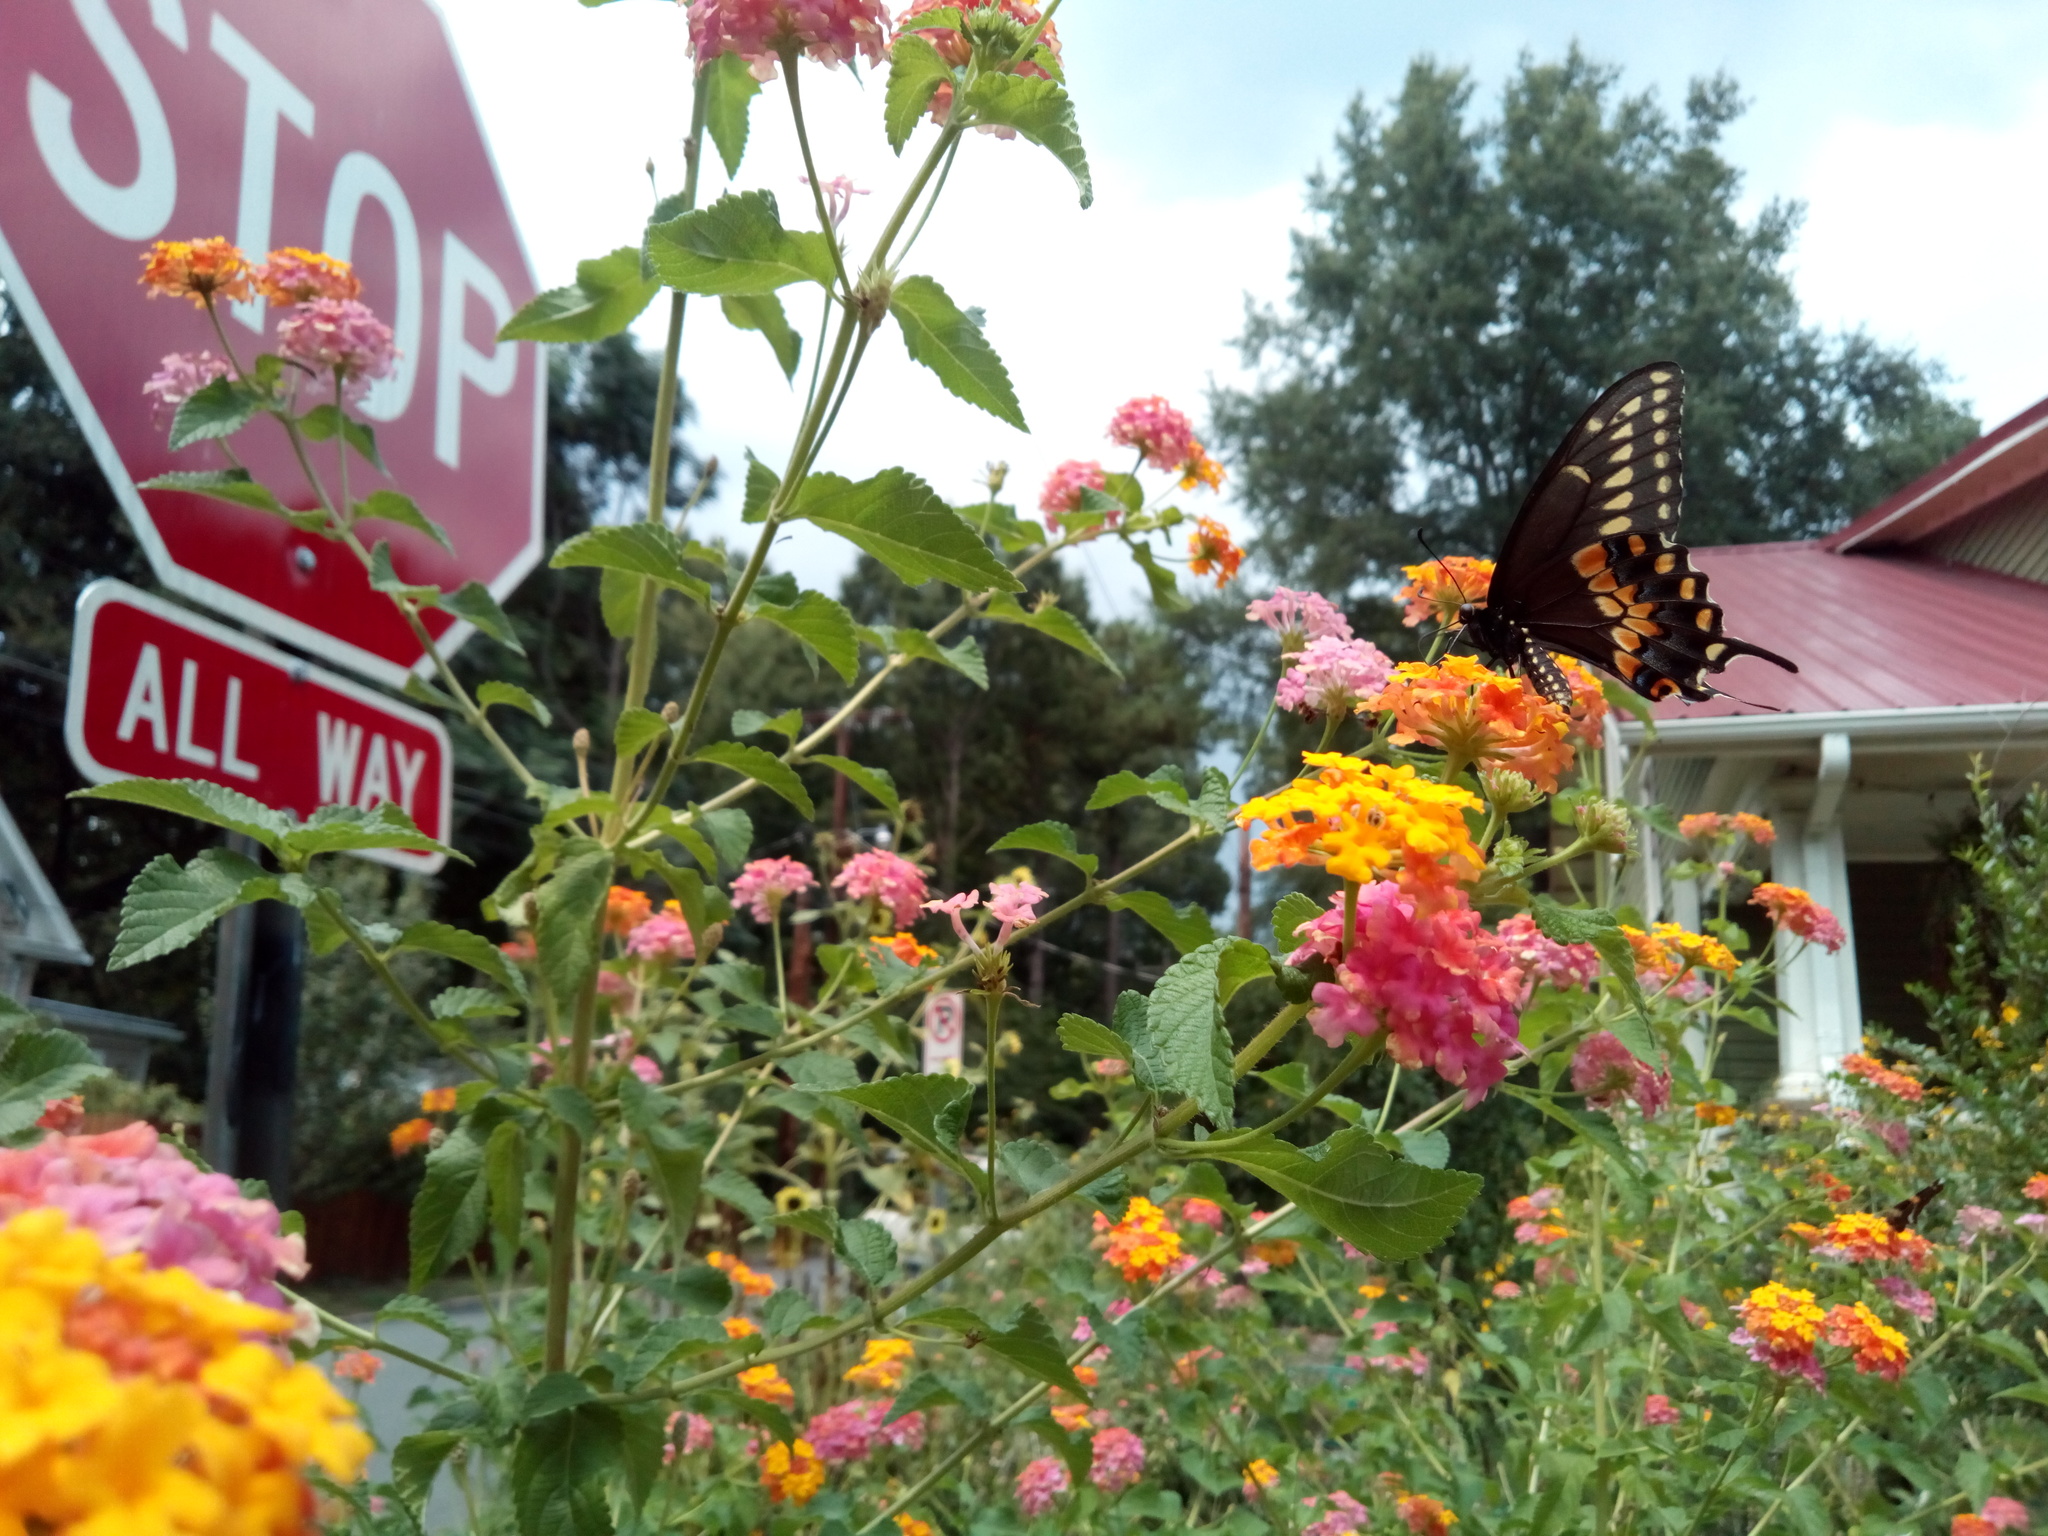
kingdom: Animalia
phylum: Arthropoda
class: Insecta
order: Lepidoptera
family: Papilionidae
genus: Papilio
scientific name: Papilio polyxenes
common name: Black swallowtail
